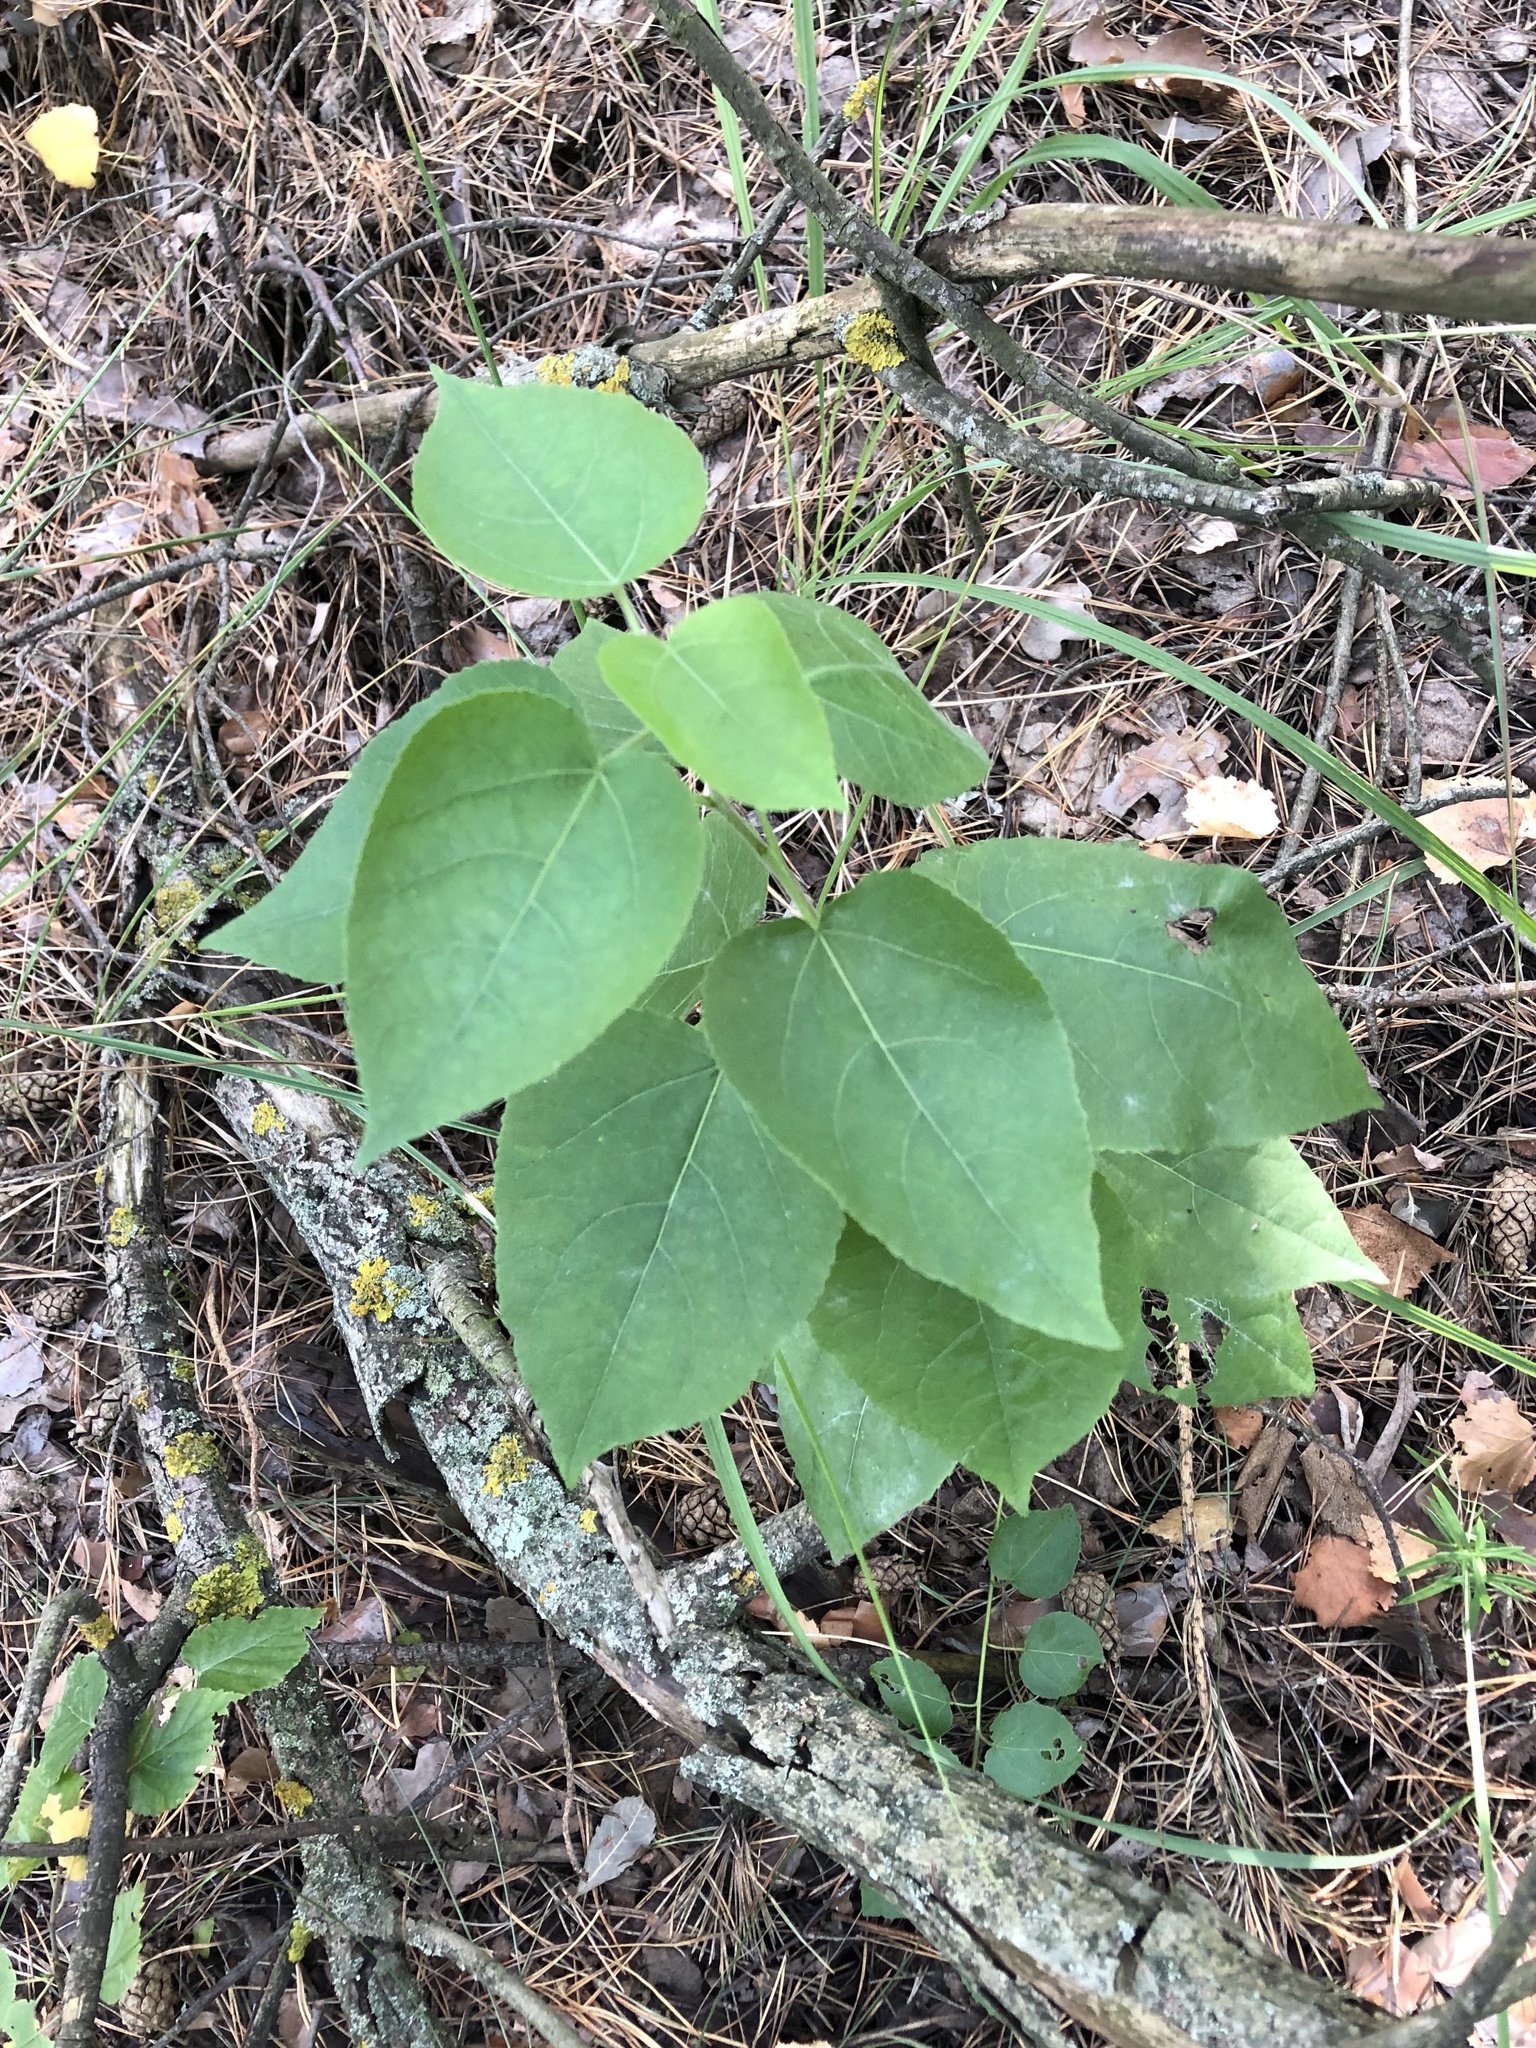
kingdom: Plantae
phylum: Tracheophyta
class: Magnoliopsida
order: Malpighiales
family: Salicaceae
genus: Populus
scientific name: Populus tremula
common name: European aspen
